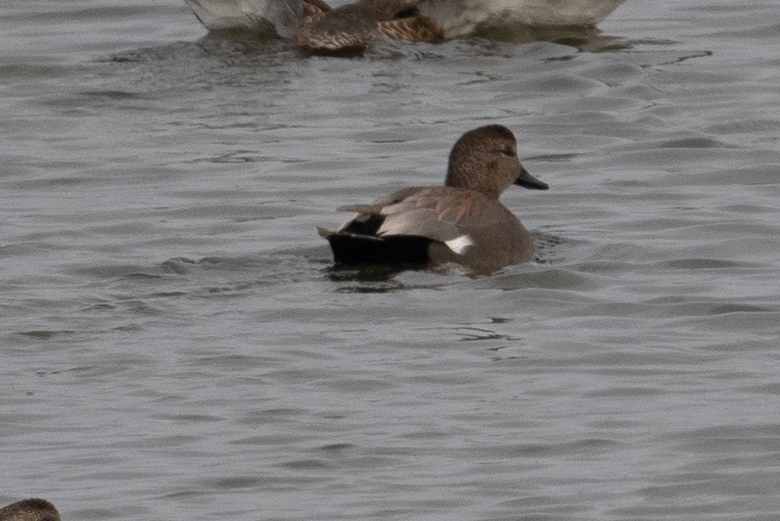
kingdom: Animalia
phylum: Chordata
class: Aves
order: Anseriformes
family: Anatidae
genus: Mareca
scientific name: Mareca strepera
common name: Gadwall
